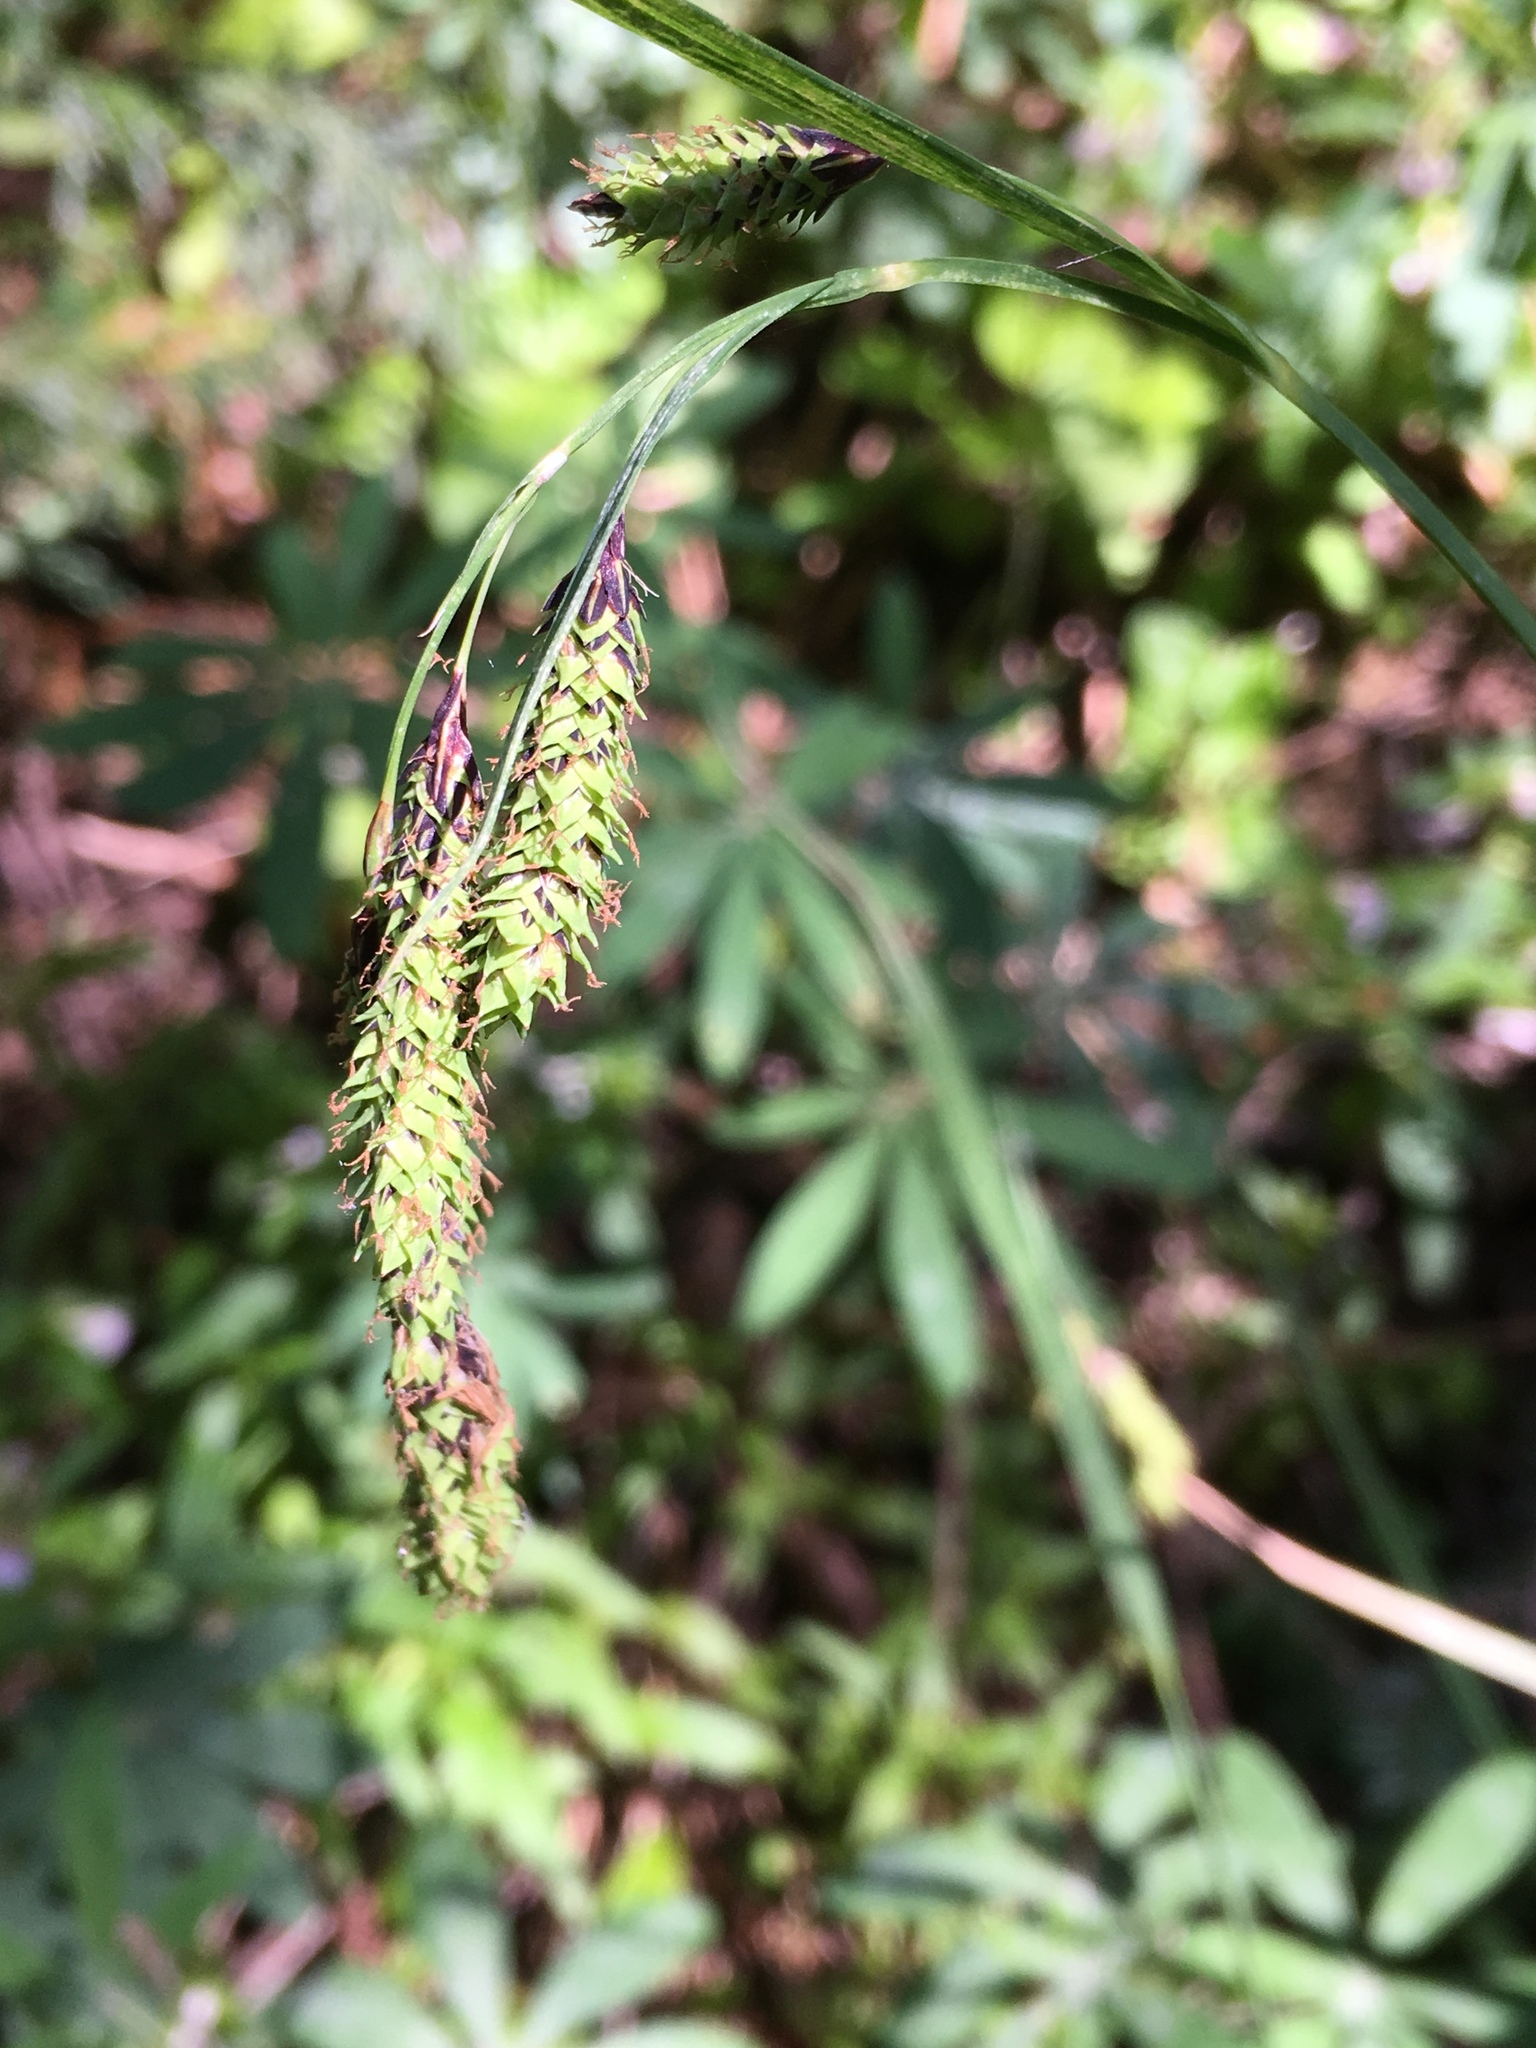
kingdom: Plantae
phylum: Tracheophyta
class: Liliopsida
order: Poales
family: Cyperaceae
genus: Carex
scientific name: Carex mertensii
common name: Mertens' sedge
